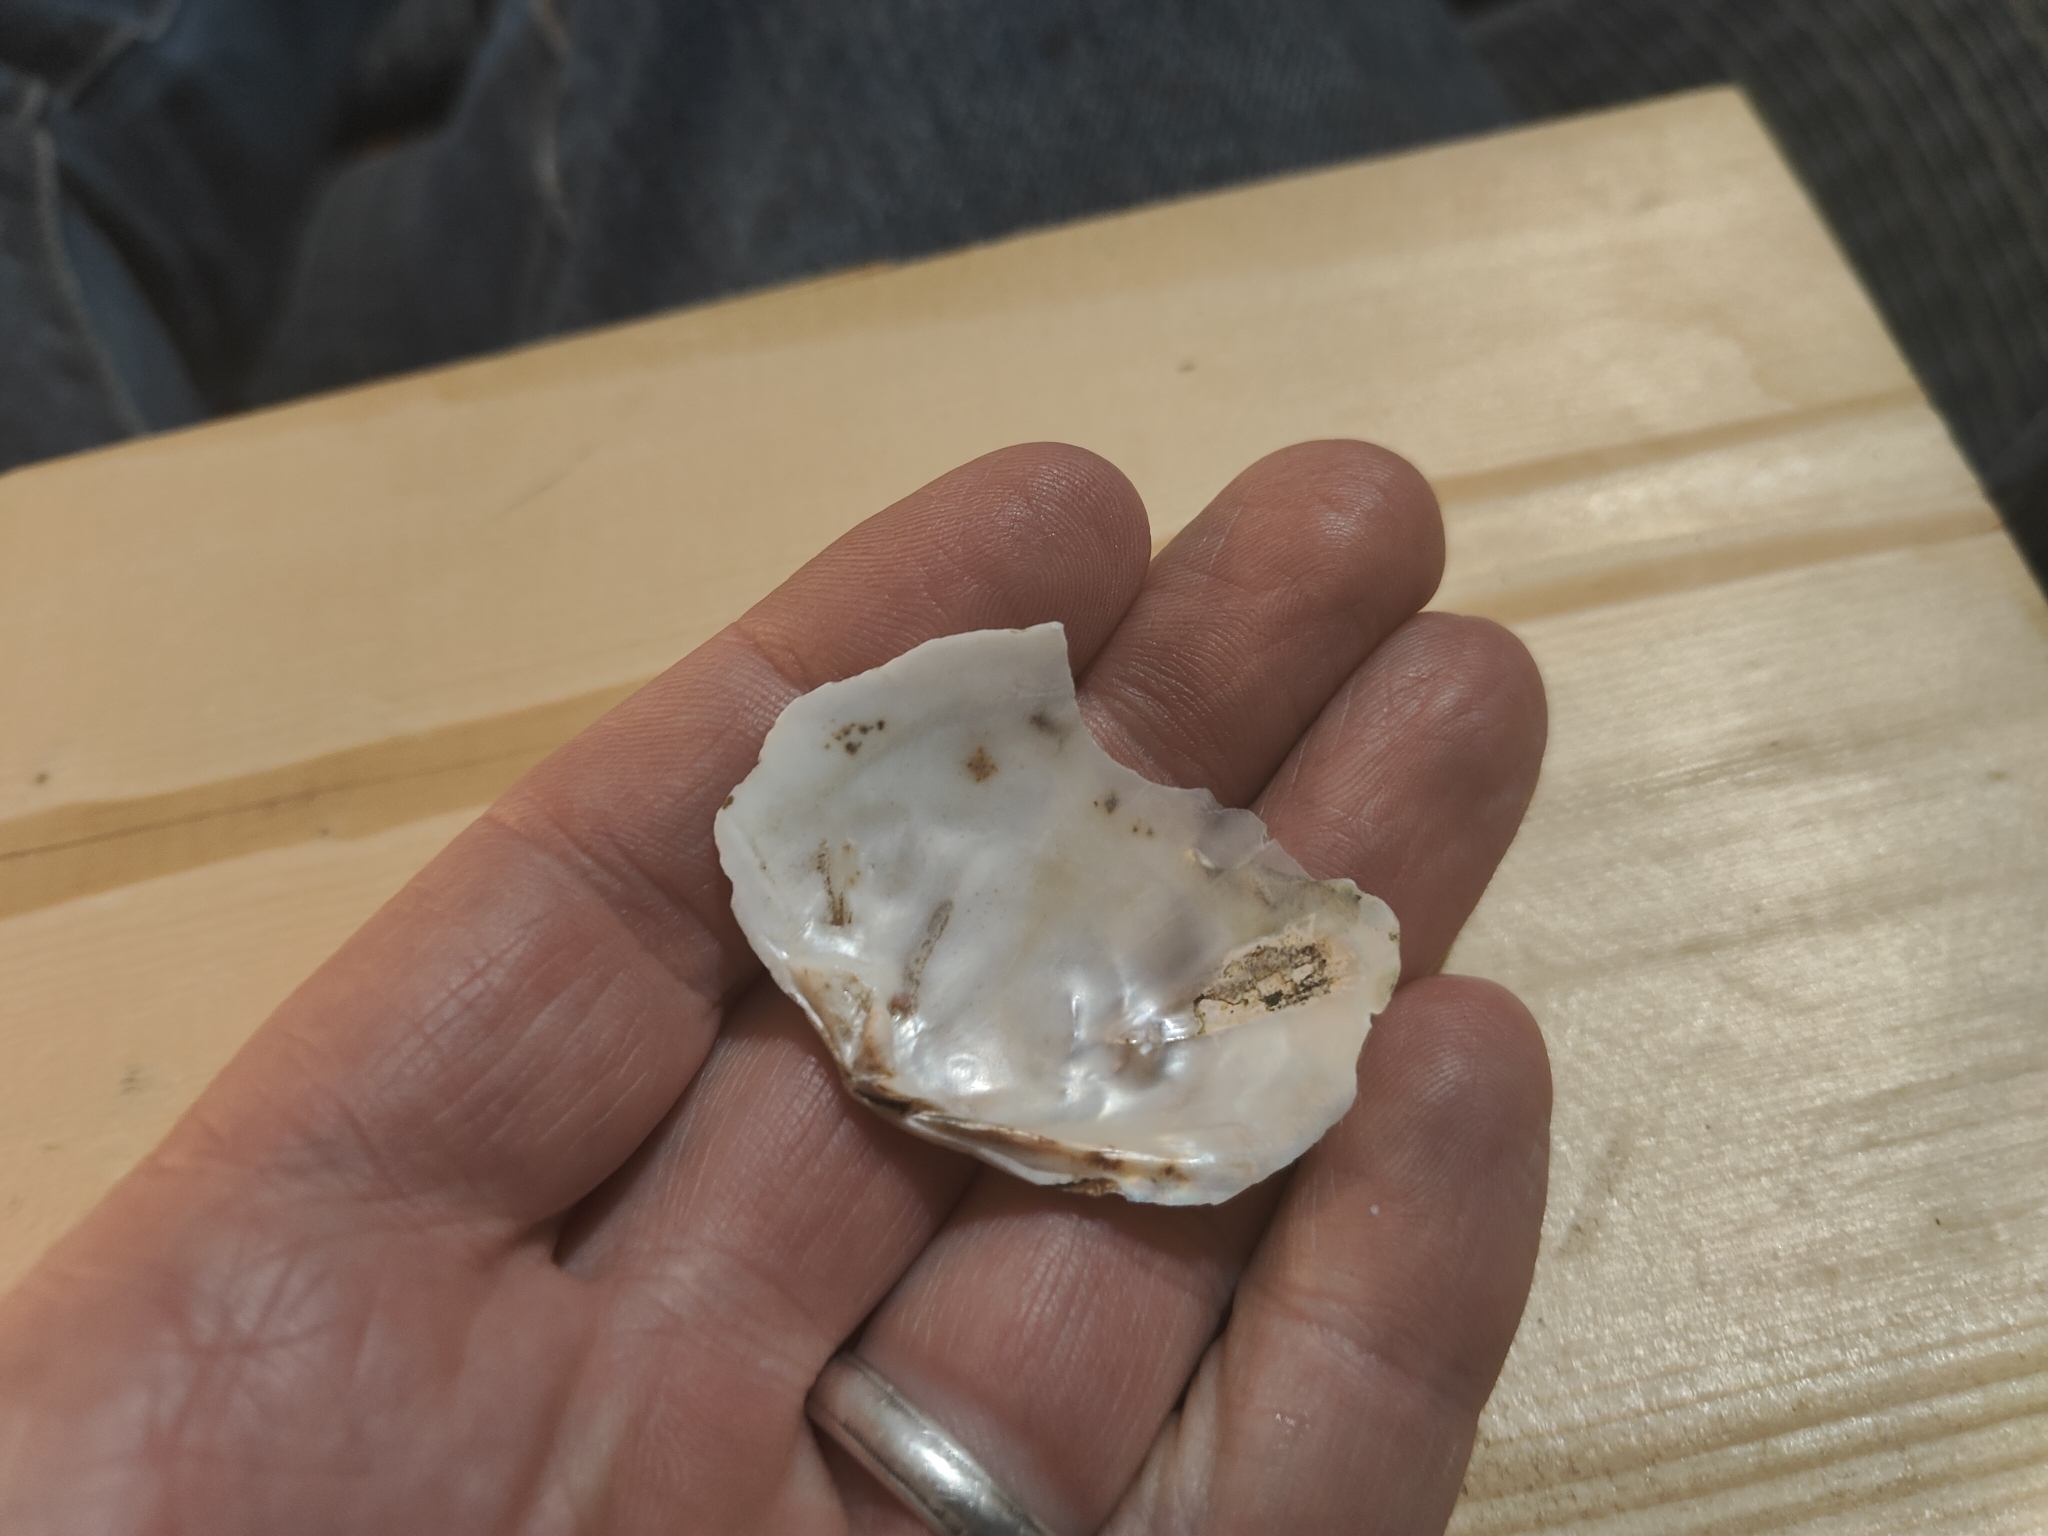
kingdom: Animalia
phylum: Mollusca
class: Bivalvia
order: Unionida
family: Unionidae
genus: Lasmigona
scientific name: Lasmigona complanata
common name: White heelsplitter
